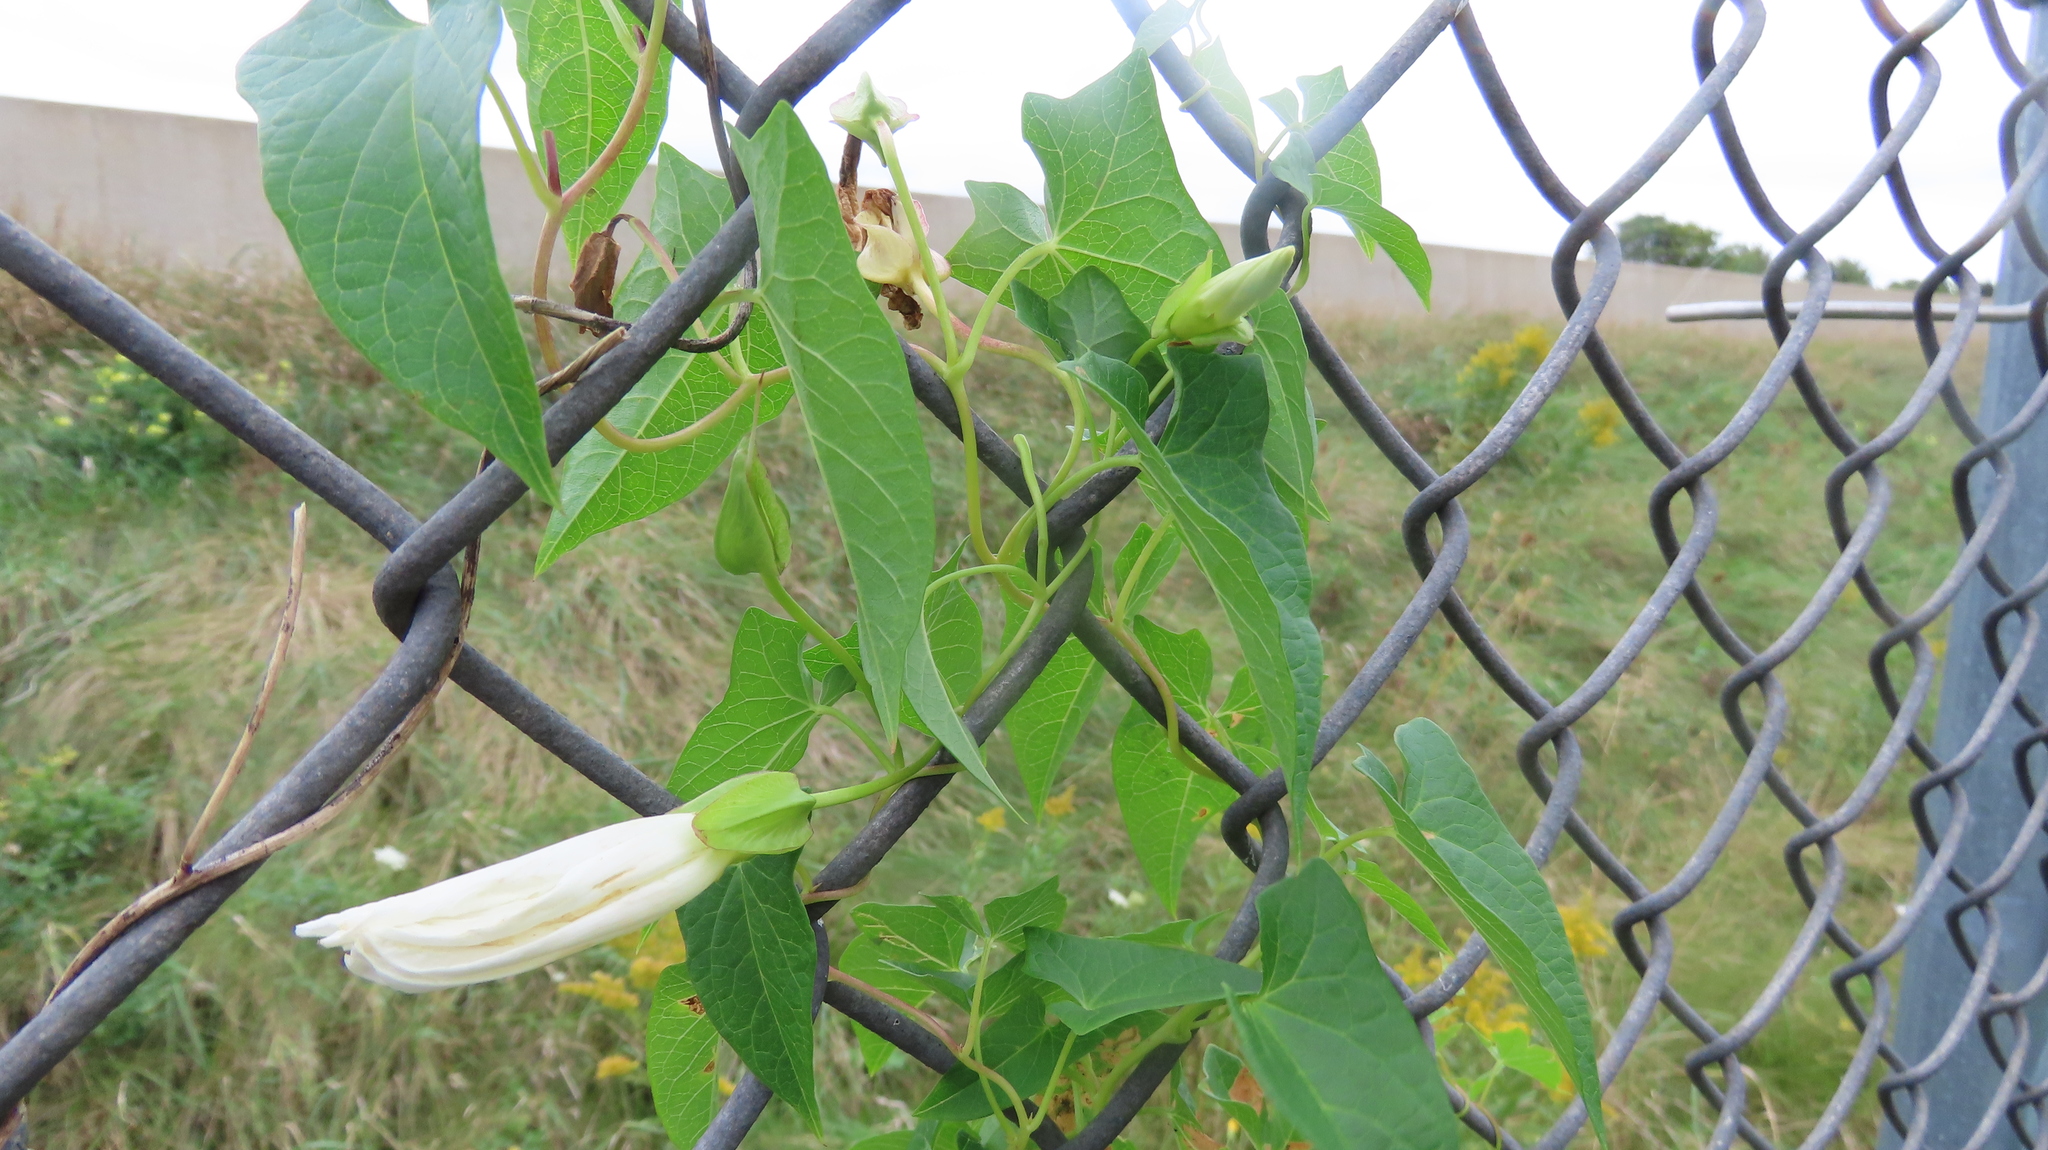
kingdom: Plantae
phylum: Tracheophyta
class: Magnoliopsida
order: Solanales
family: Convolvulaceae
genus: Calystegia
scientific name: Calystegia sepium
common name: Hedge bindweed
